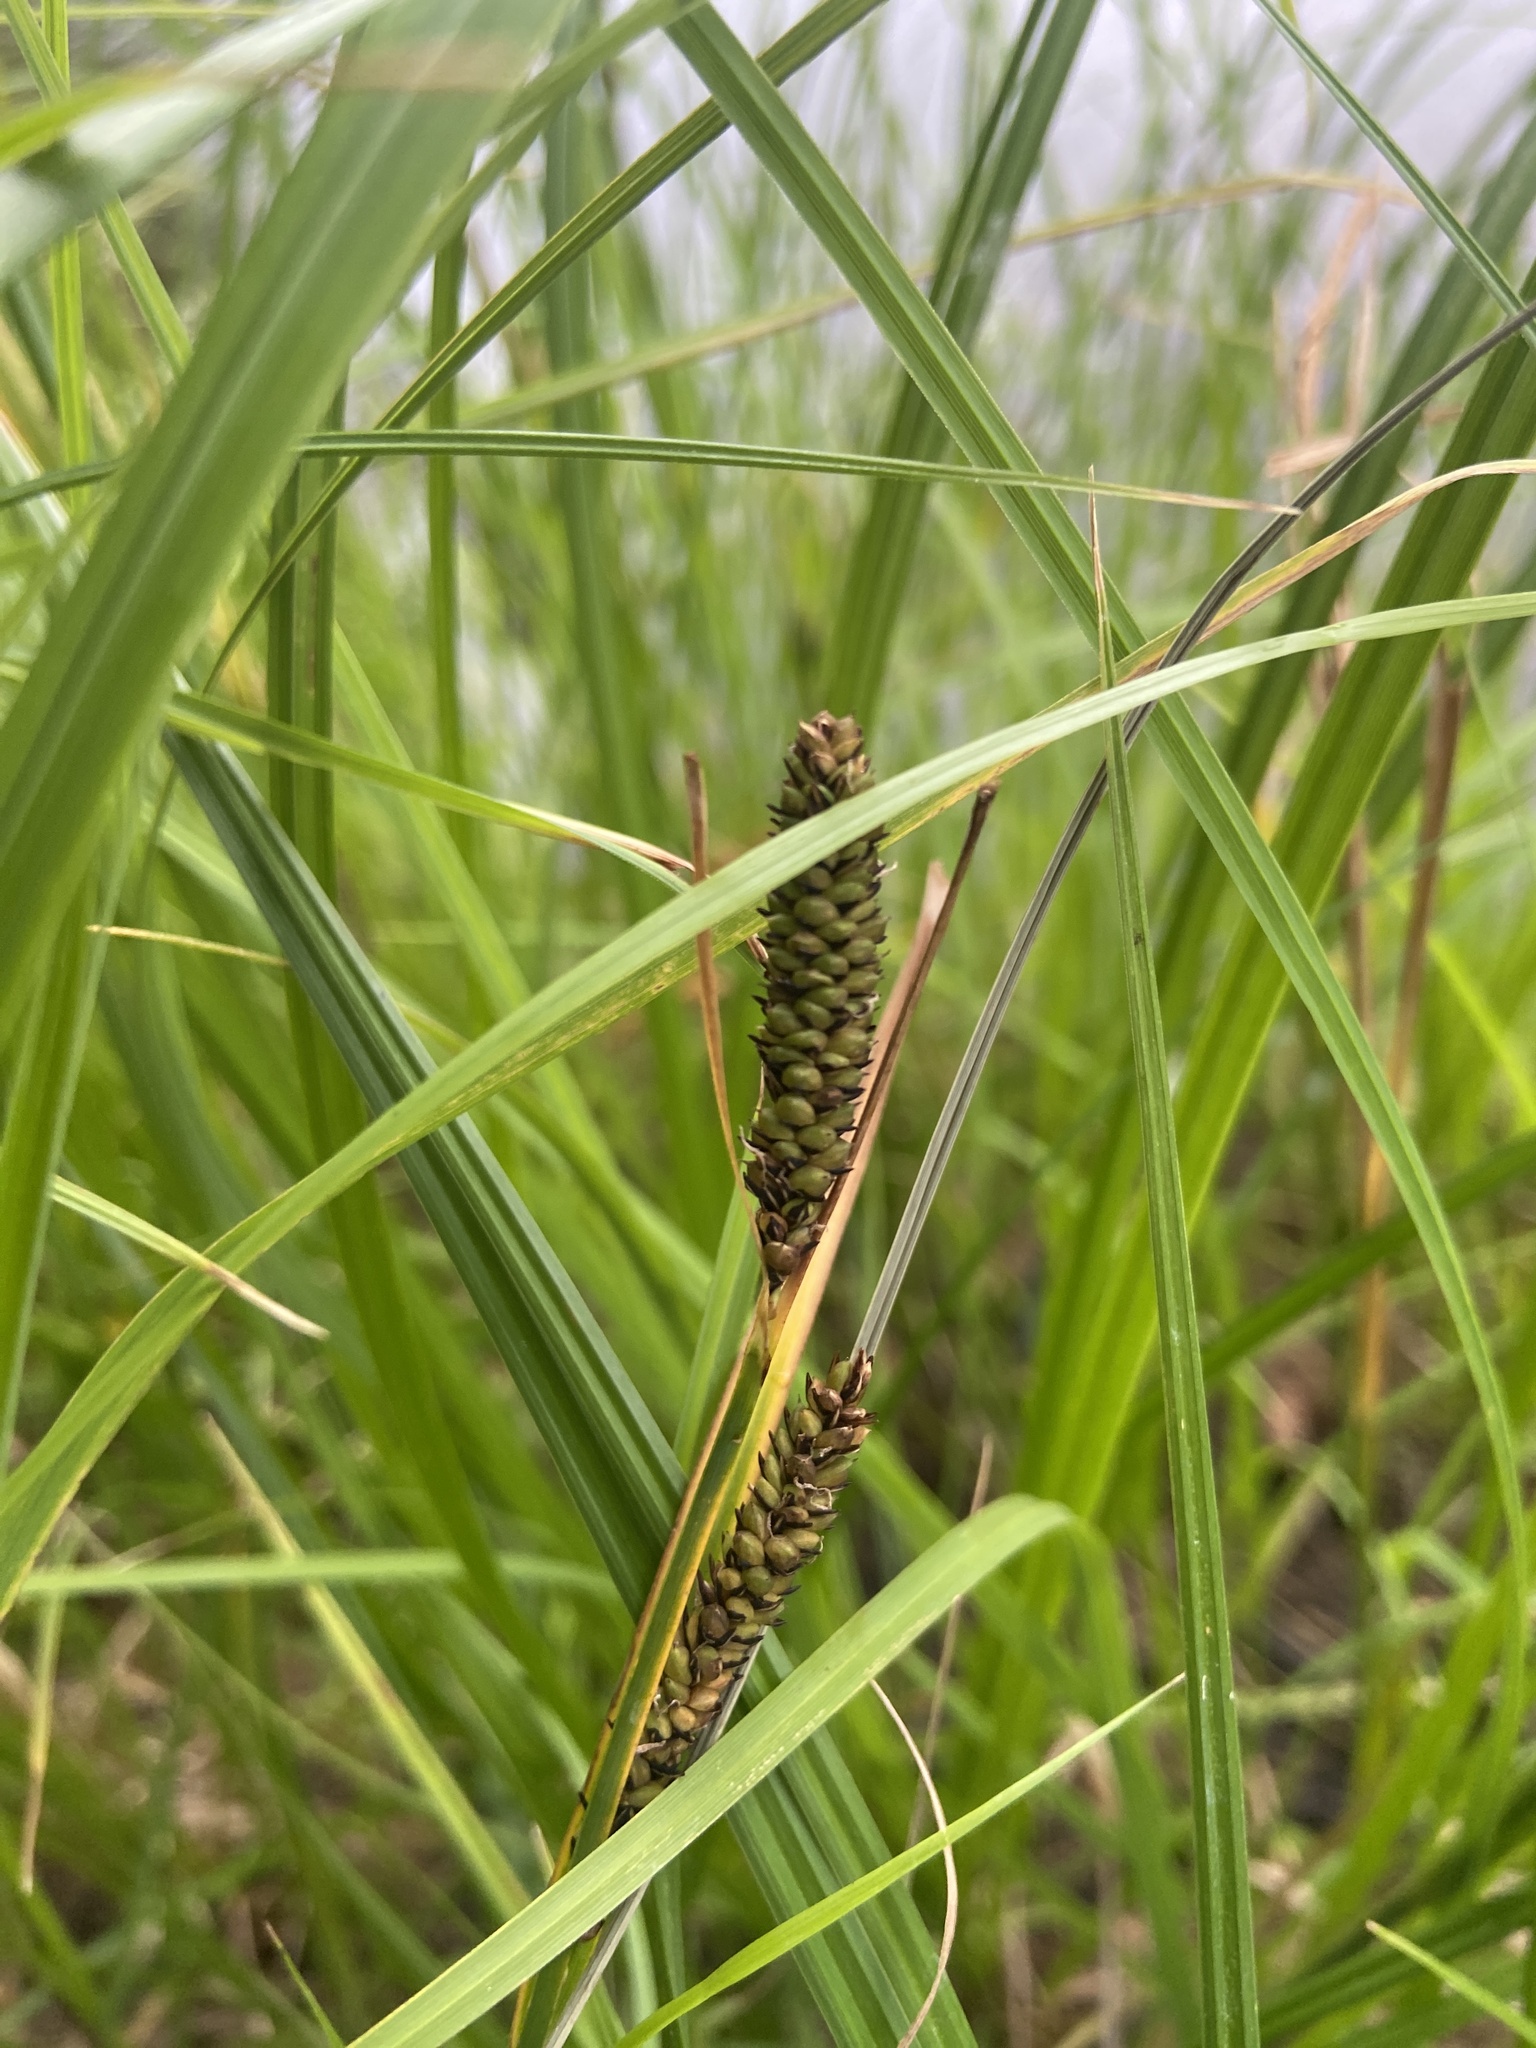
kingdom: Plantae
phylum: Tracheophyta
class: Liliopsida
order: Poales
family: Cyperaceae
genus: Carex
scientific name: Carex acuta
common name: Slender tufted-sedge
